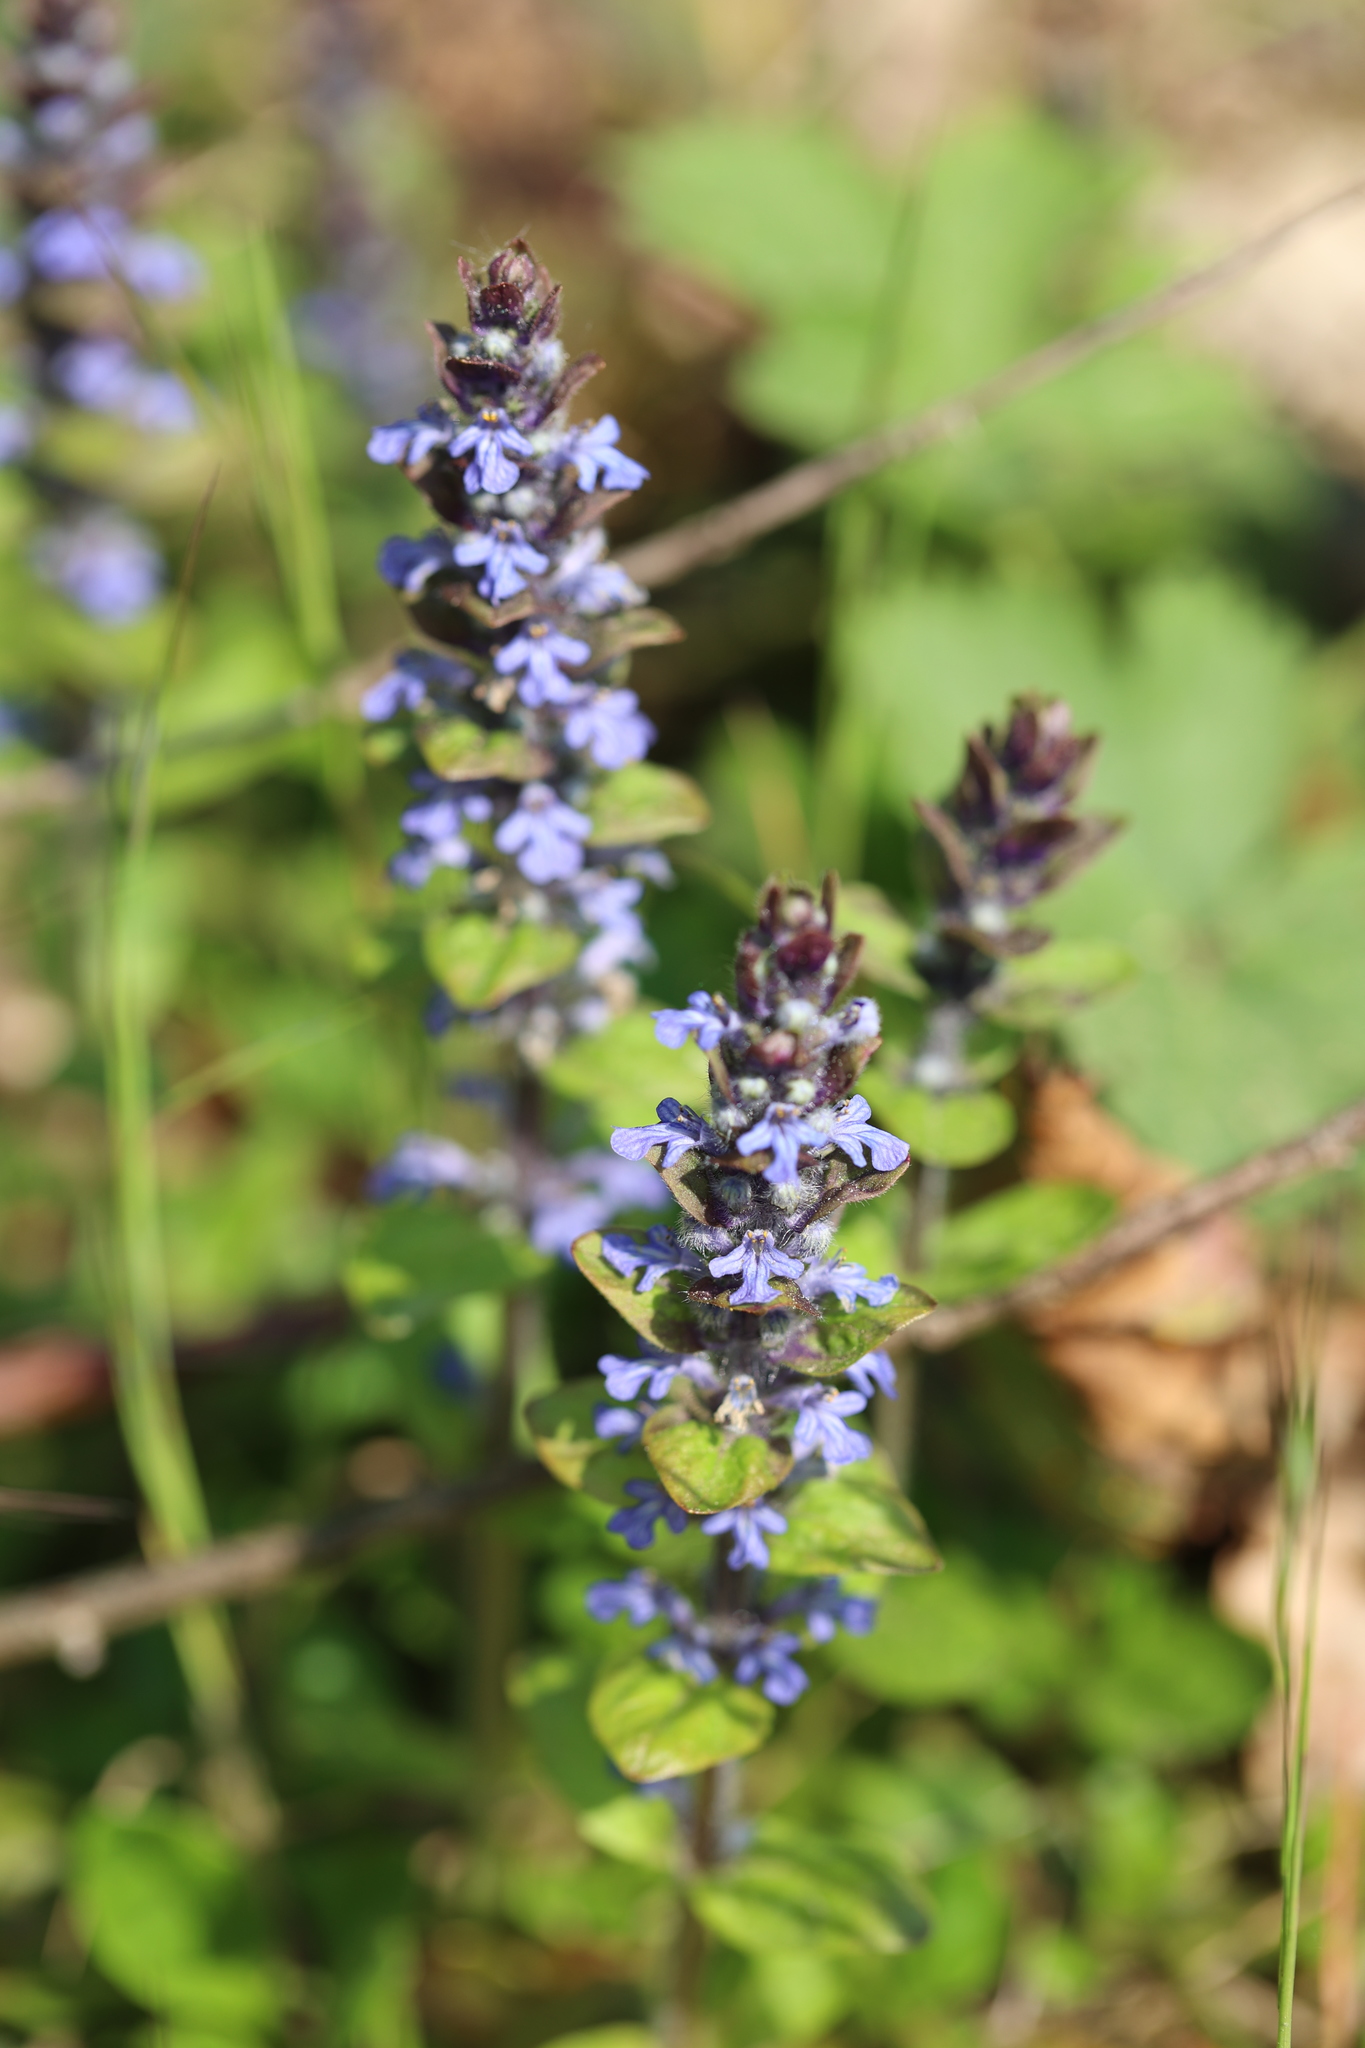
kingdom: Plantae
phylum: Tracheophyta
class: Magnoliopsida
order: Lamiales
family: Lamiaceae
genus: Ajuga
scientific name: Ajuga reptans
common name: Bugle
